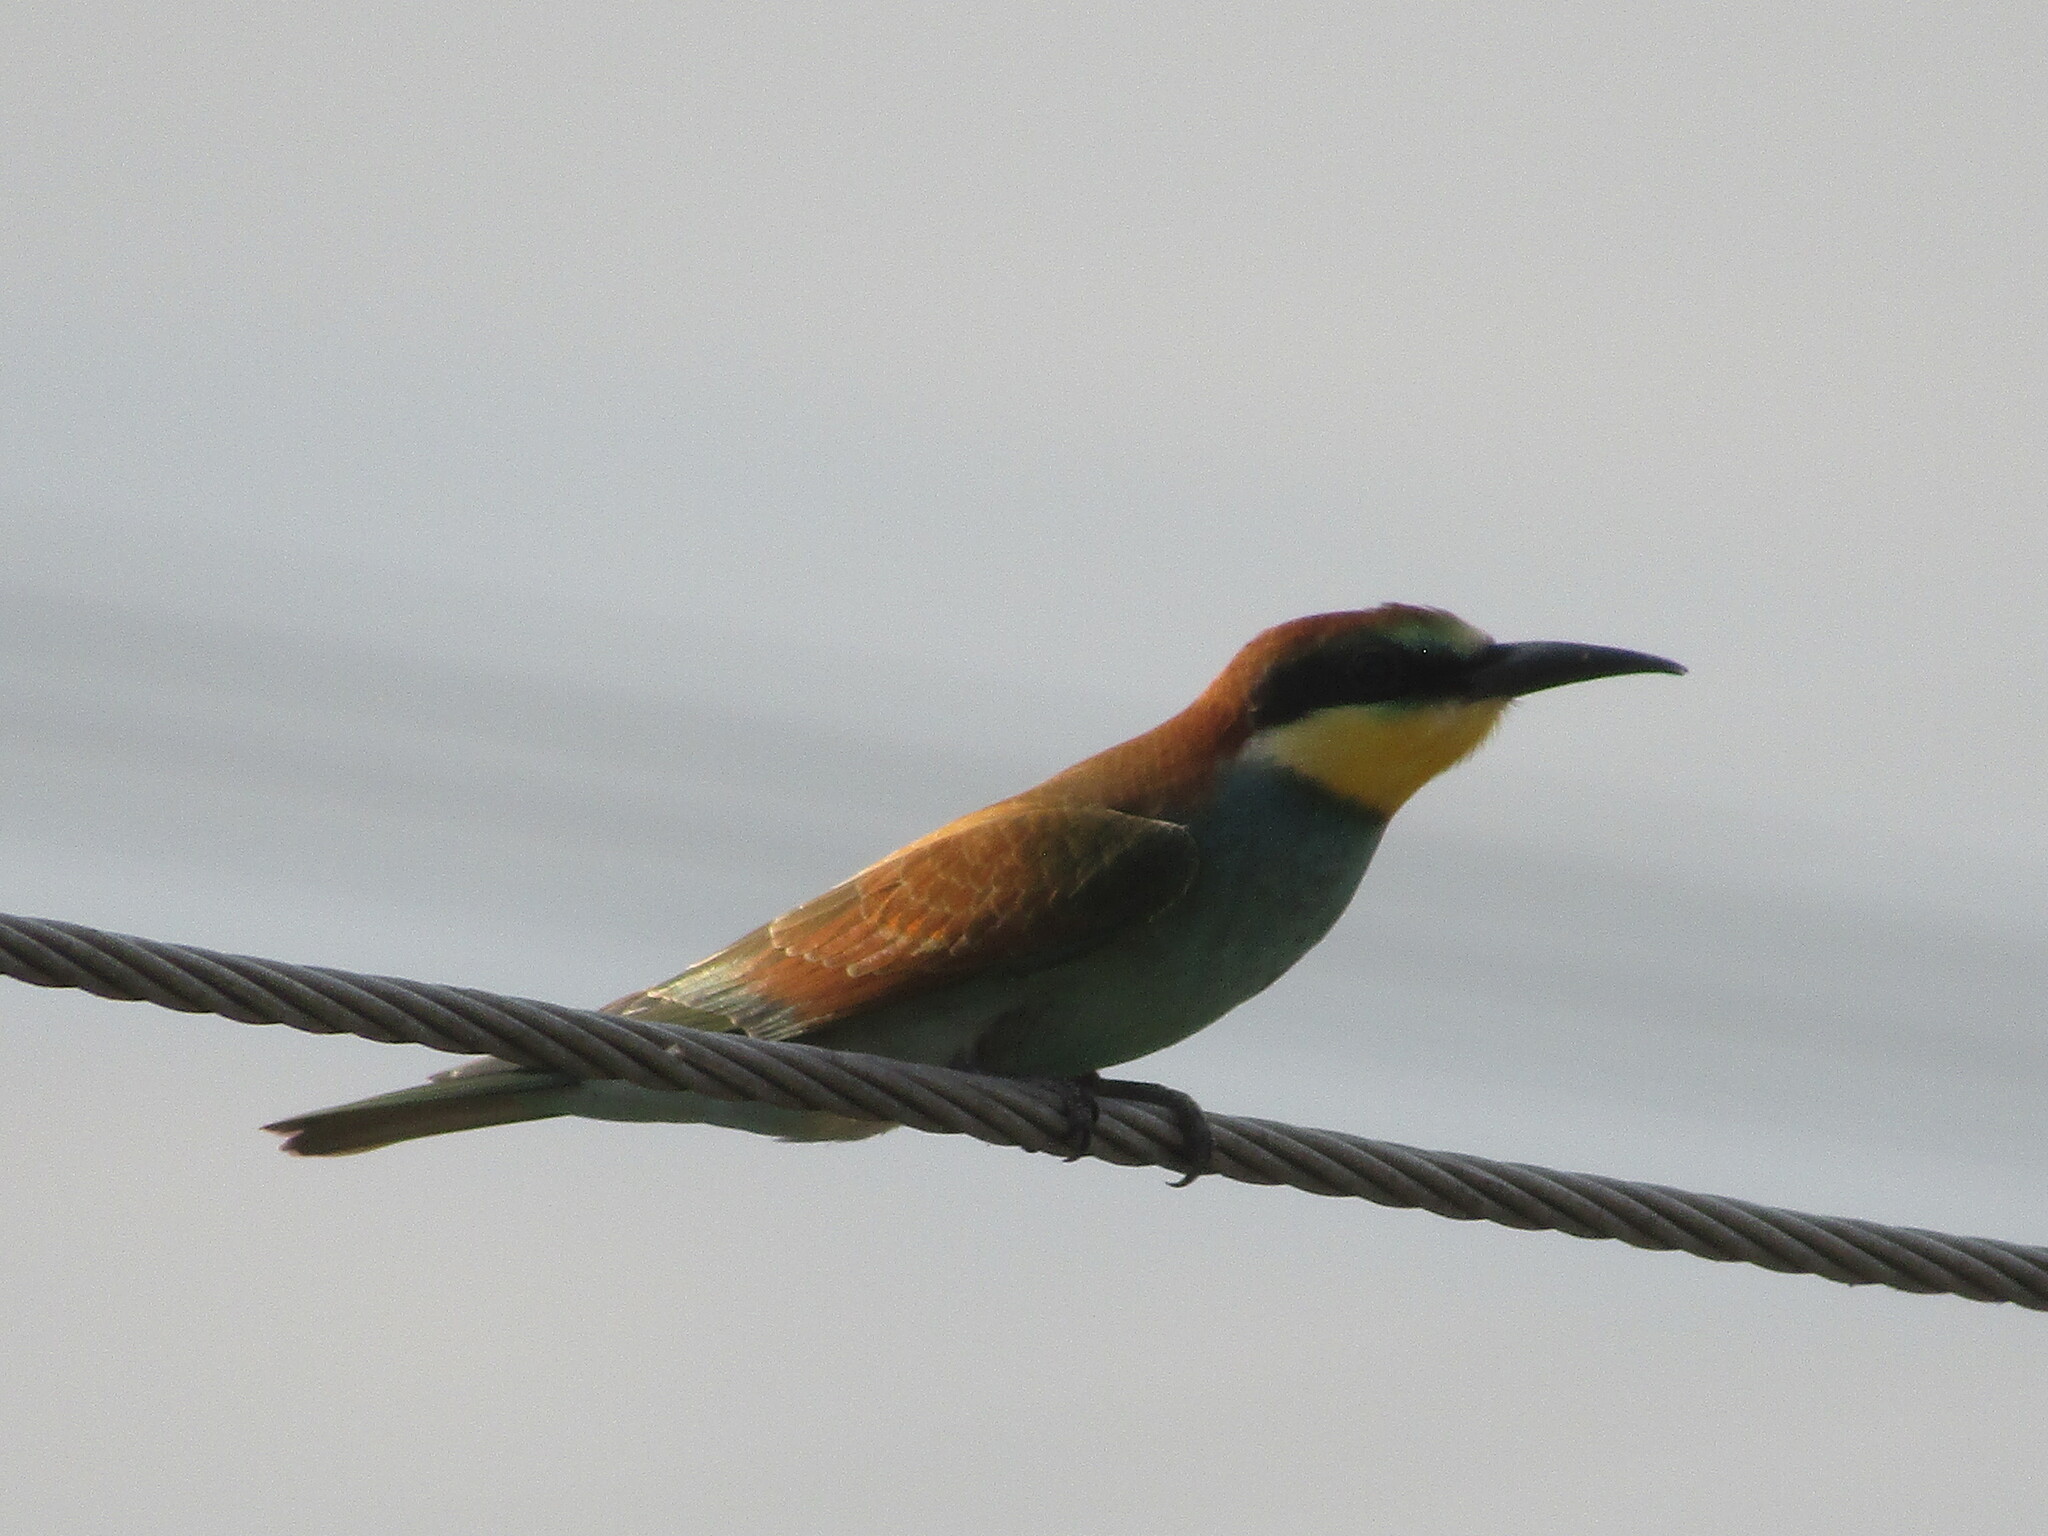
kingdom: Animalia
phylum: Chordata
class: Aves
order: Coraciiformes
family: Meropidae
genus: Merops
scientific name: Merops apiaster
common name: European bee-eater
